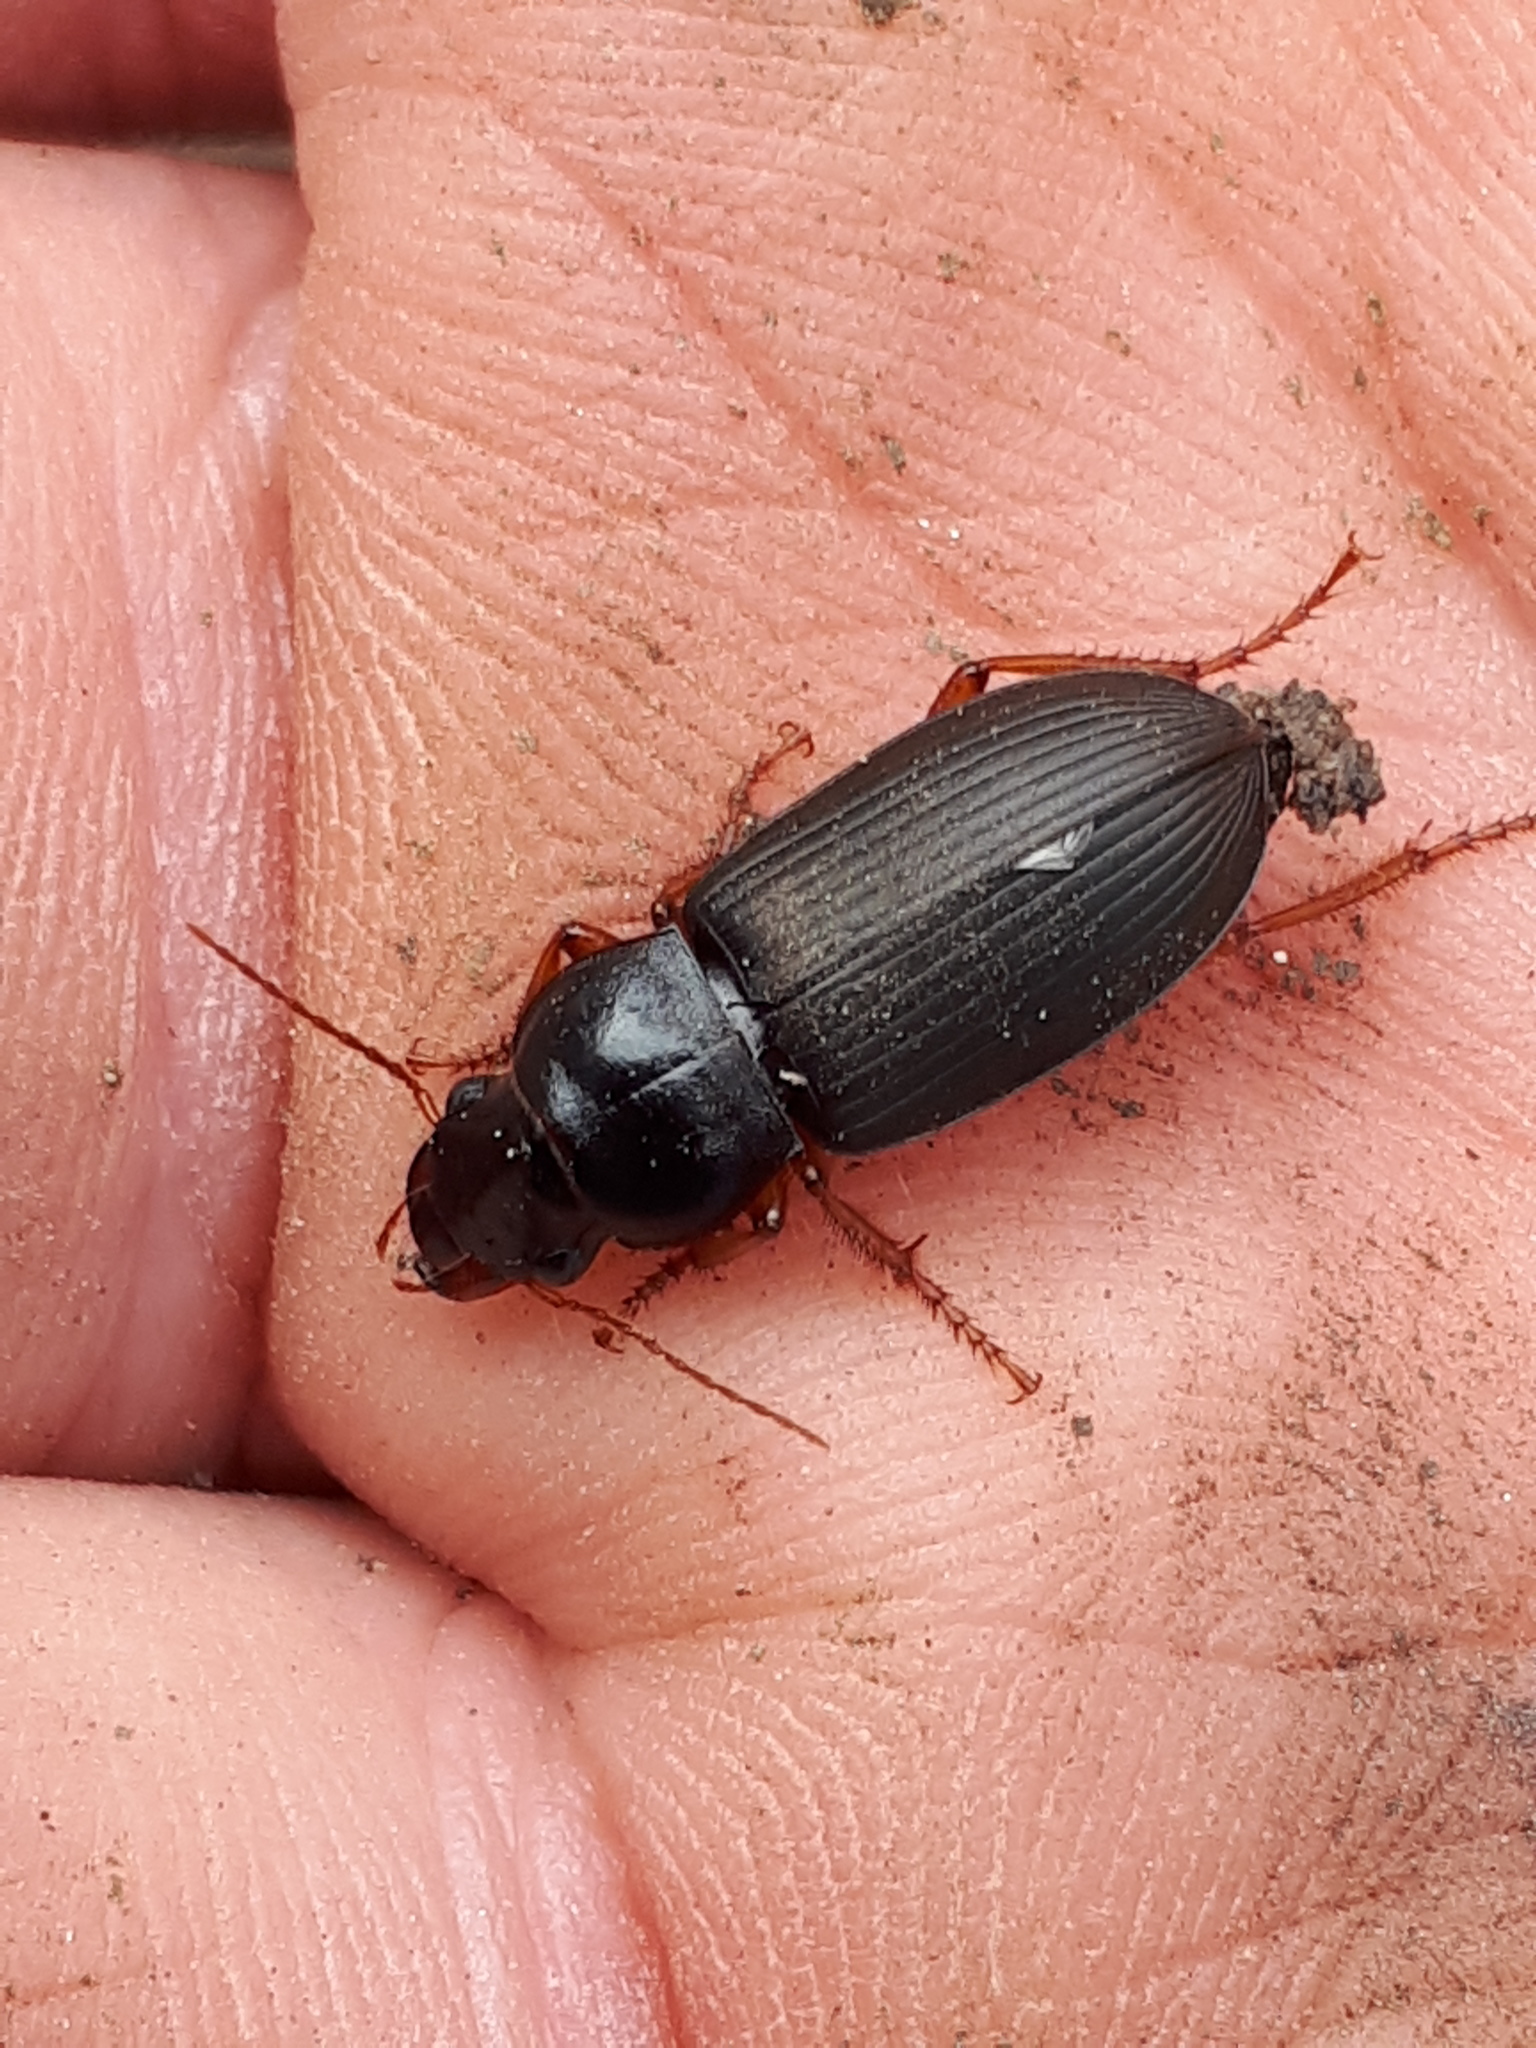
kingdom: Animalia
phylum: Arthropoda
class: Insecta
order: Coleoptera
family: Carabidae
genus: Harpalus
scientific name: Harpalus rufipes
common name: Strawberry harp ground beetle
